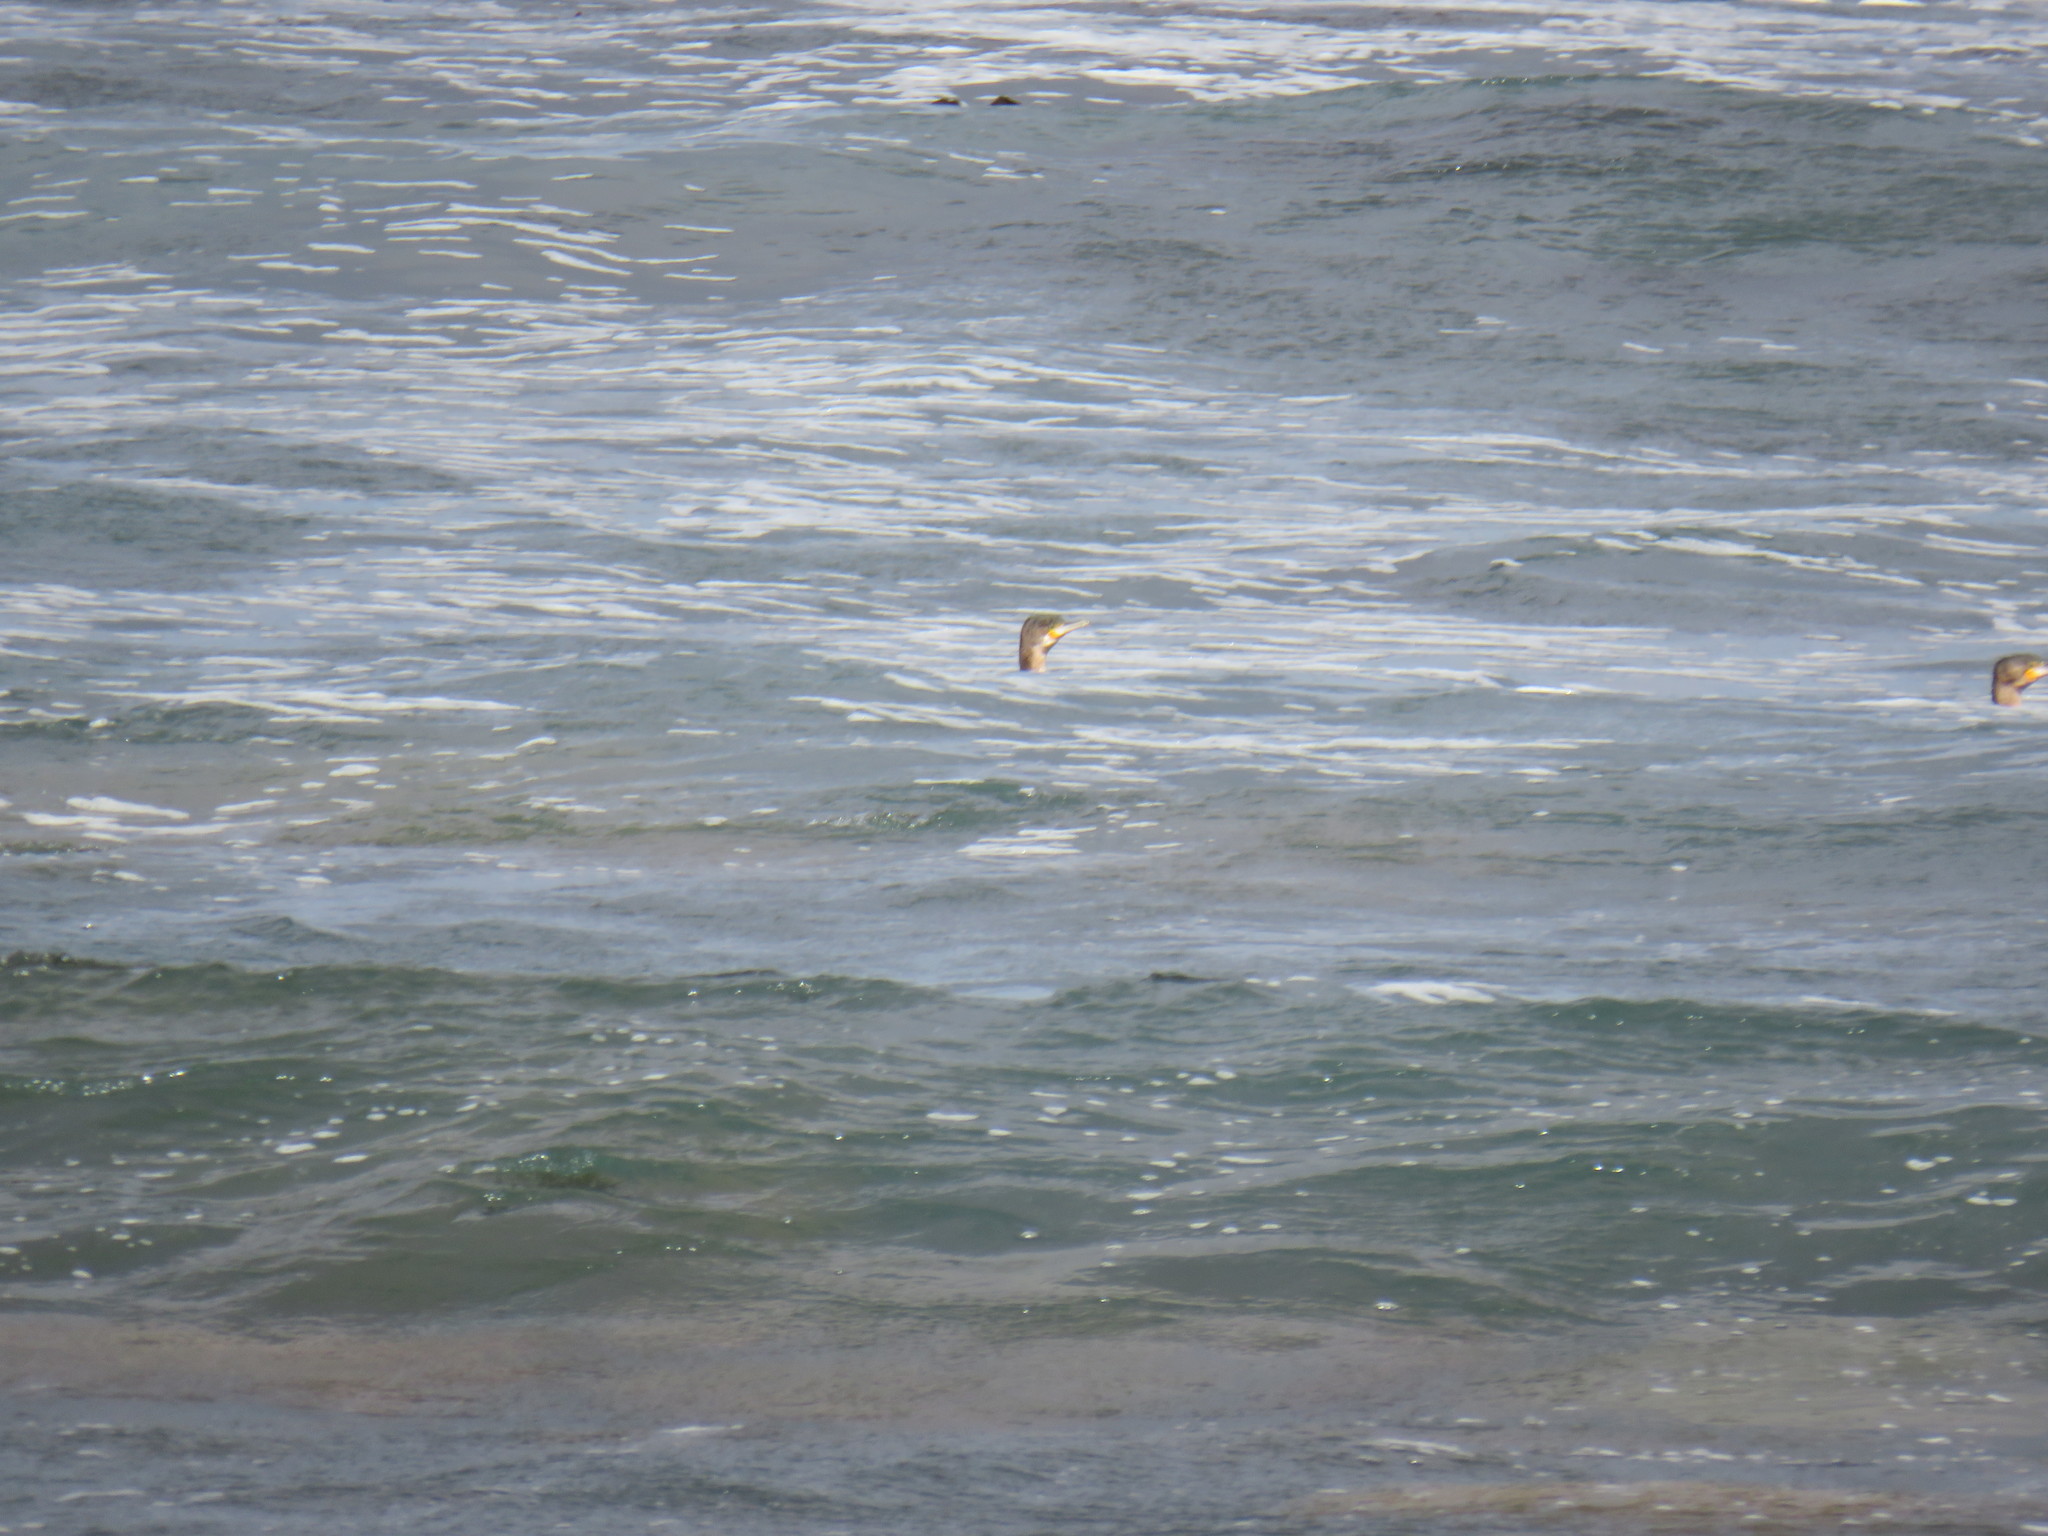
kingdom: Animalia
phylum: Chordata
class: Aves
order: Suliformes
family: Phalacrocoracidae
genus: Phalacrocorax
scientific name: Phalacrocorax capensis
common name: Cape cormorant
